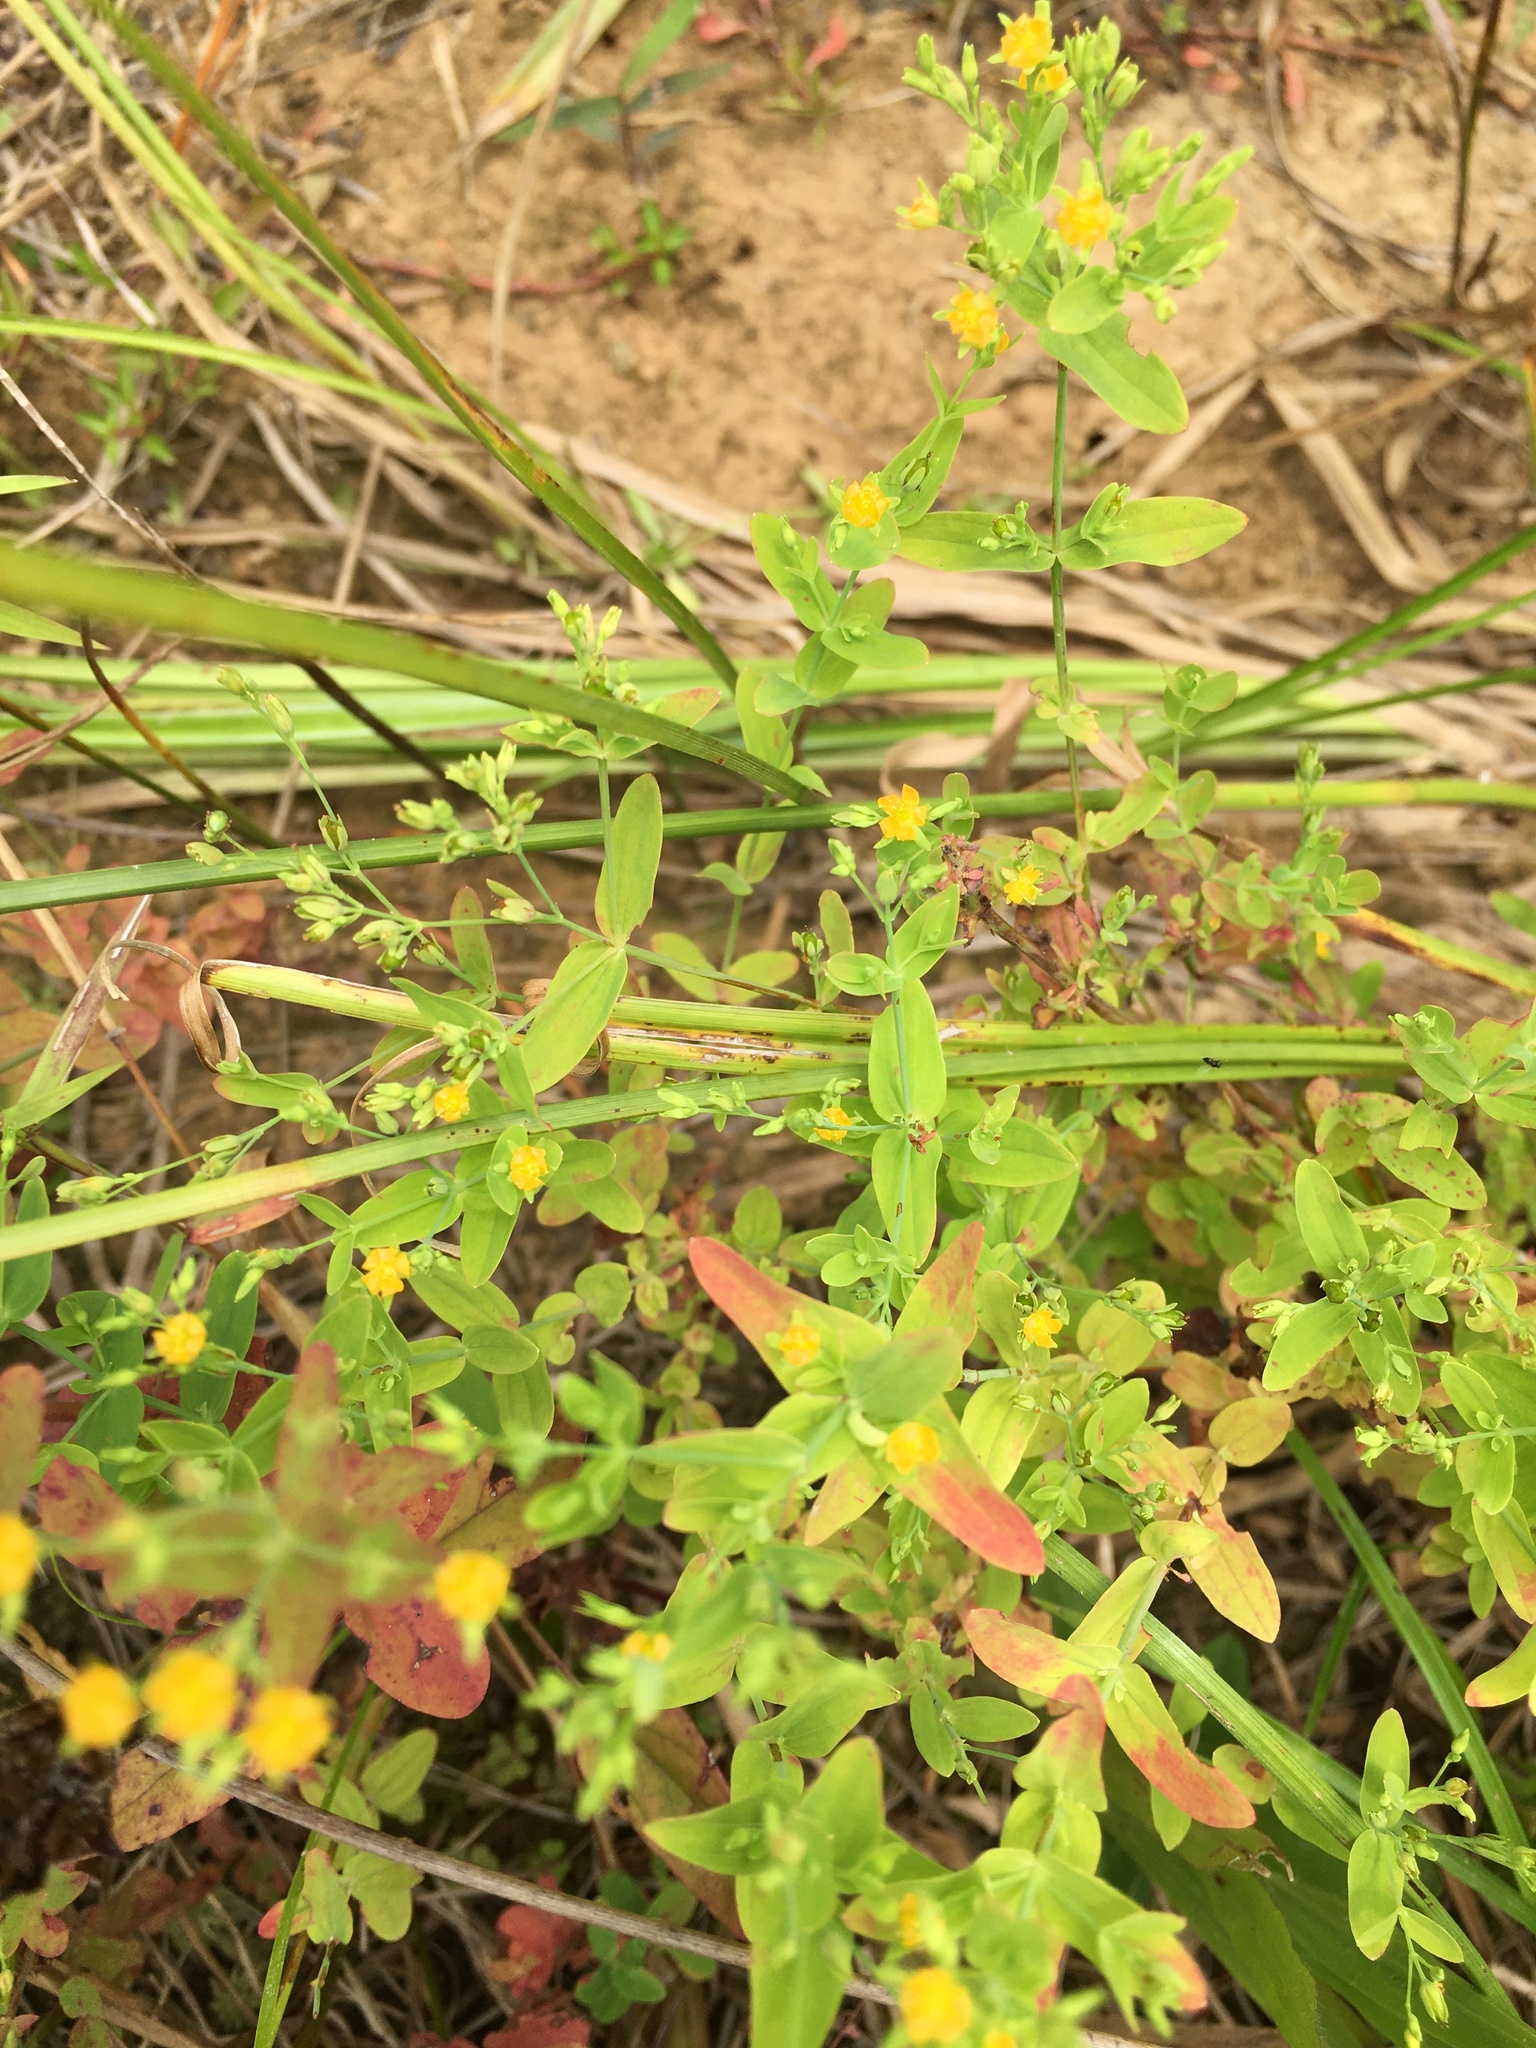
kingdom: Plantae
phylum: Tracheophyta
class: Magnoliopsida
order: Malpighiales
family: Hypericaceae
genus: Hypericum
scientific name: Hypericum mutilum
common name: Dwarf st. john's-wort
